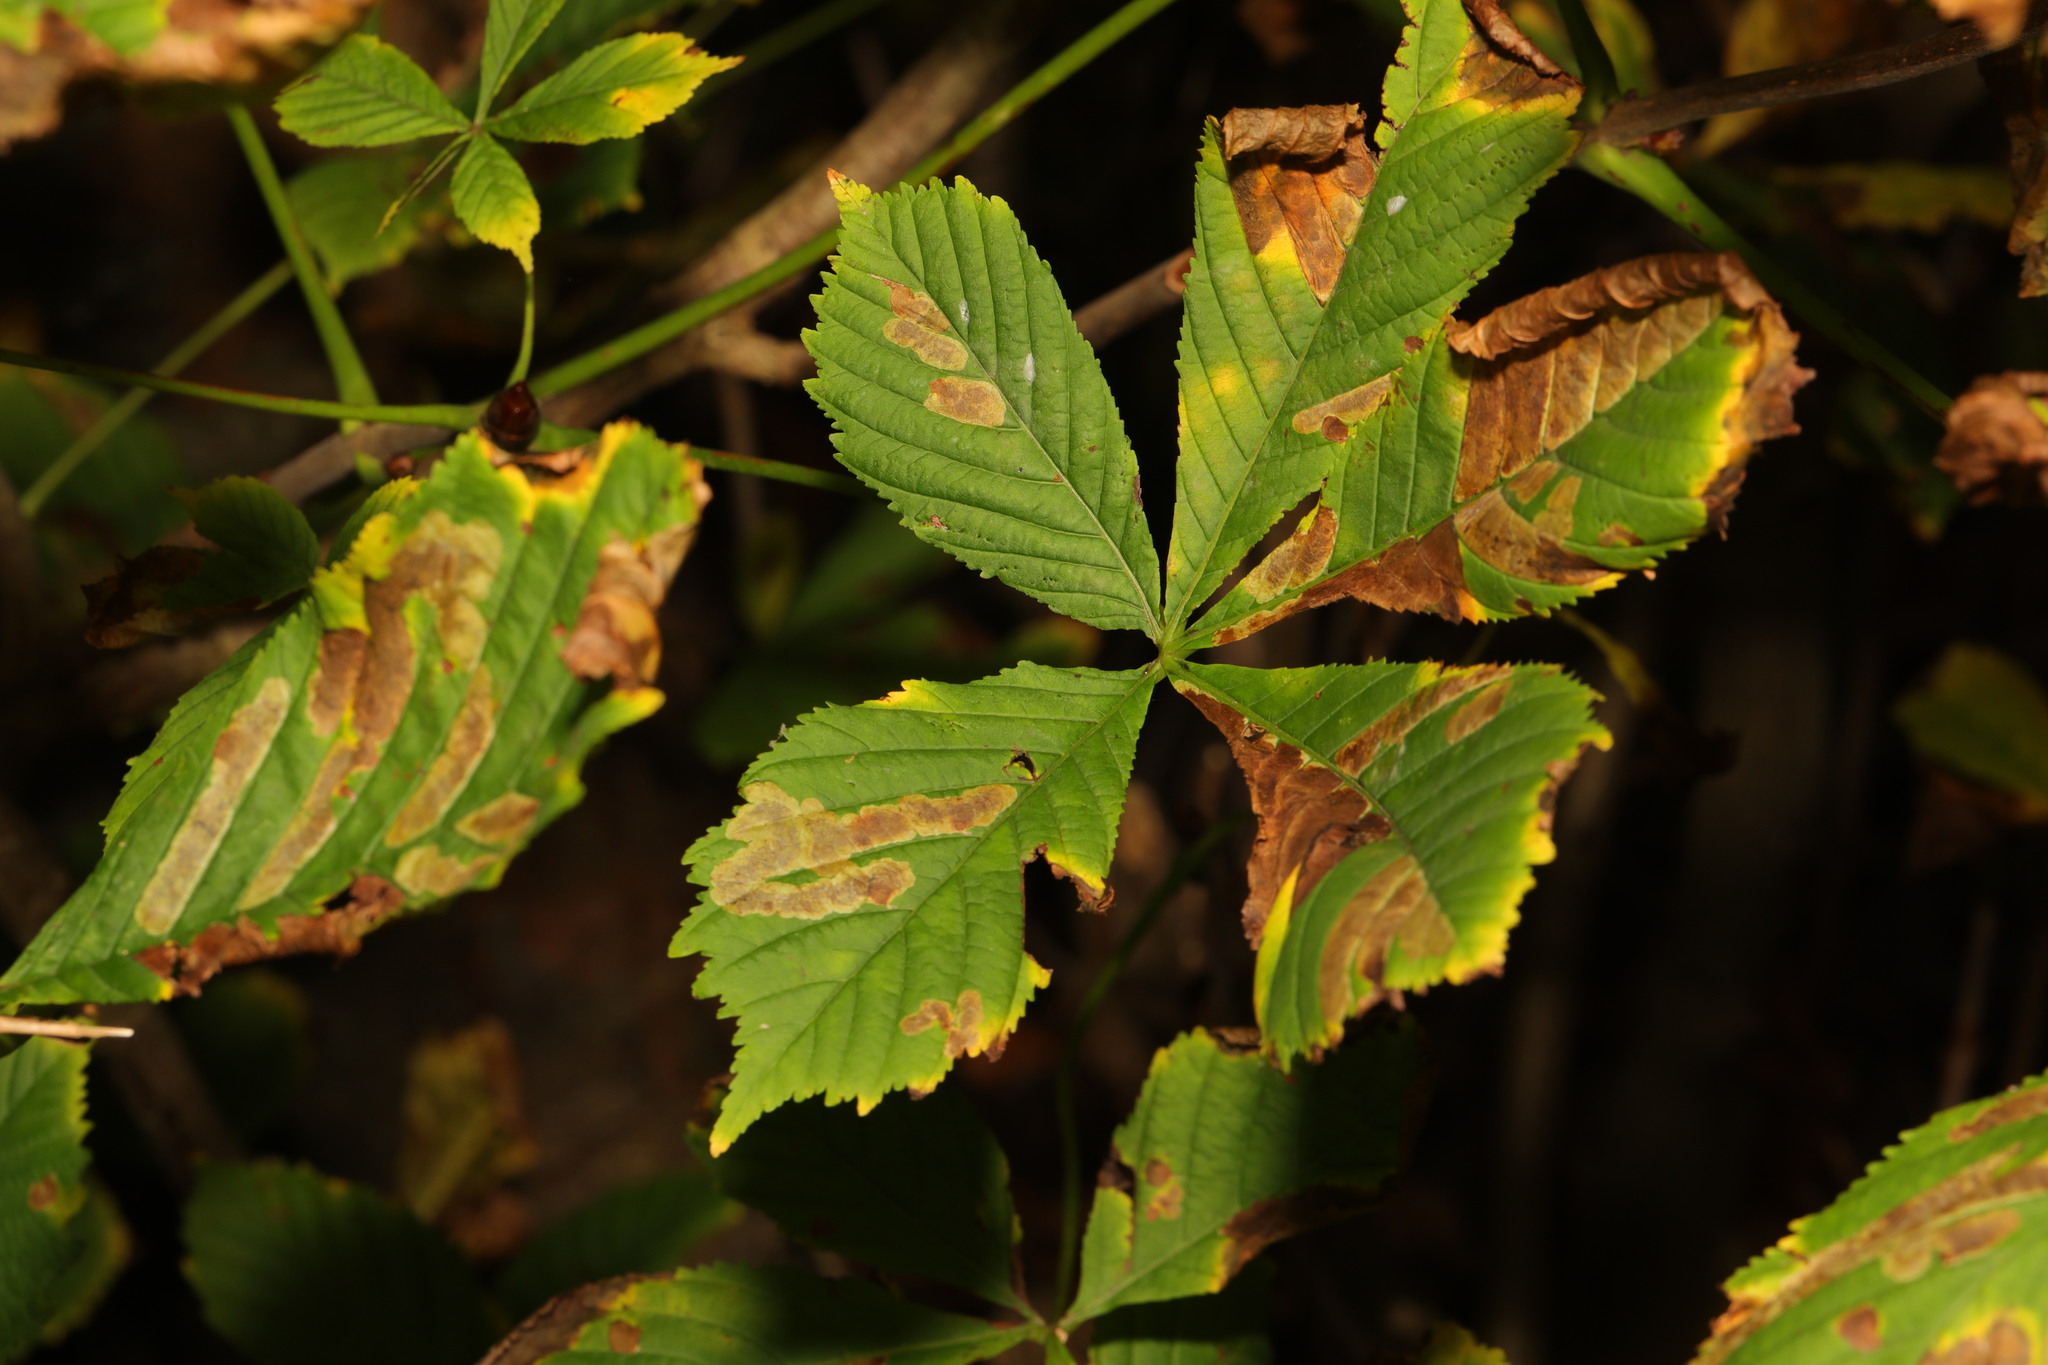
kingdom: Plantae
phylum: Tracheophyta
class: Magnoliopsida
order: Sapindales
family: Sapindaceae
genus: Aesculus
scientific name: Aesculus hippocastanum
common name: Horse-chestnut
